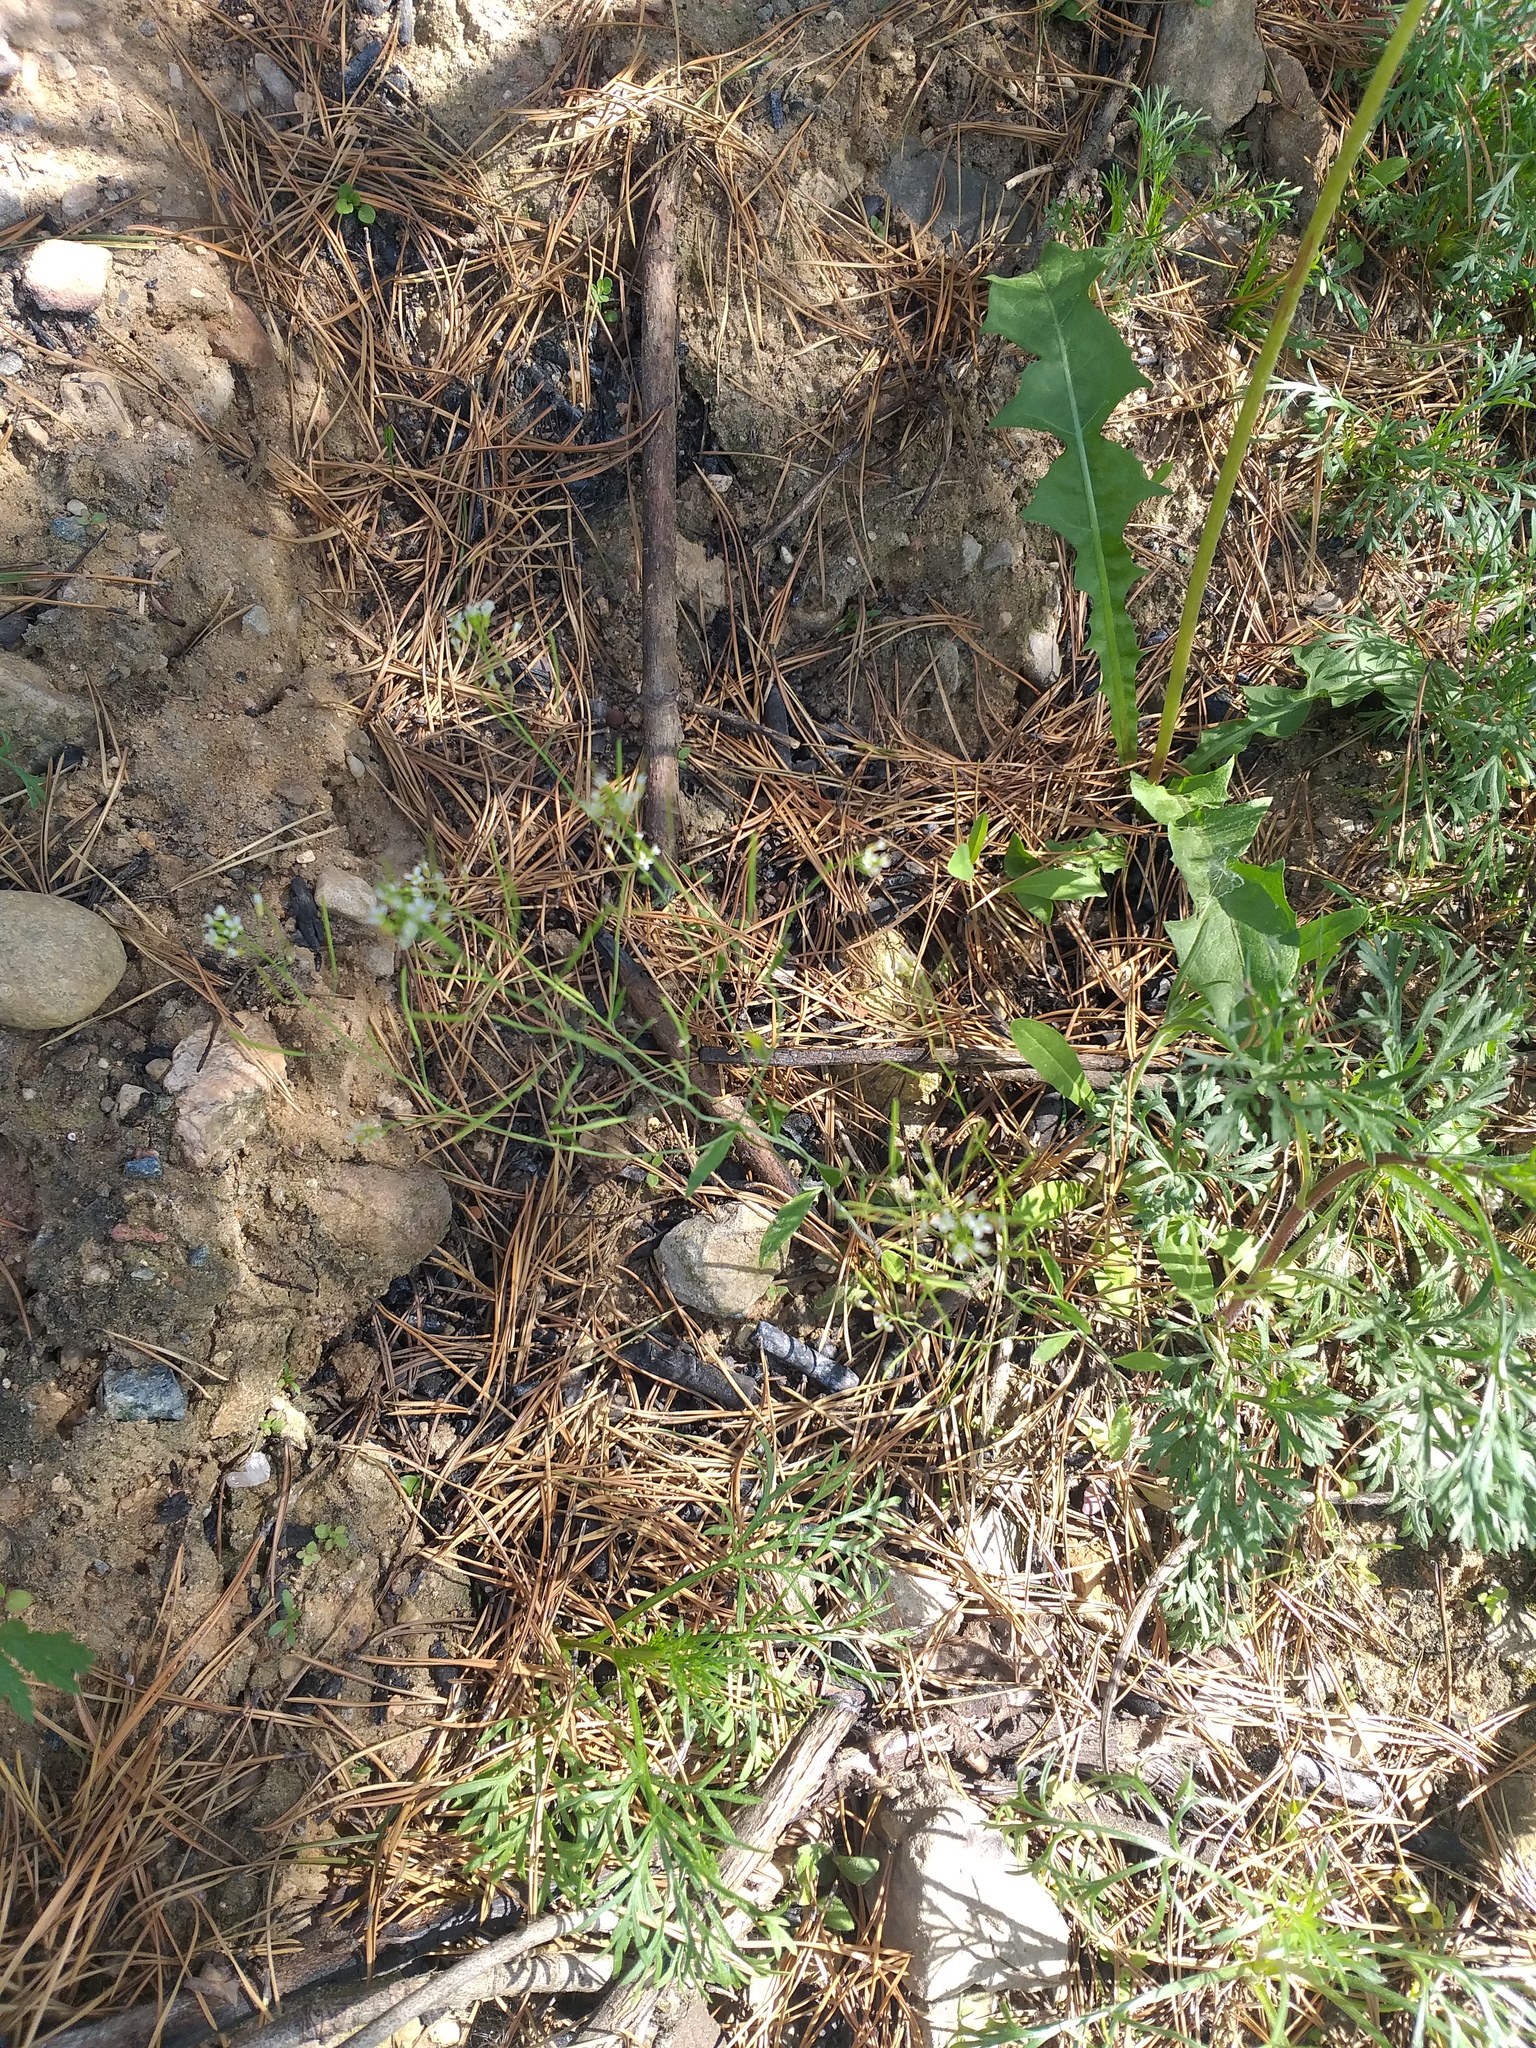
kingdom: Plantae
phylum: Tracheophyta
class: Magnoliopsida
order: Brassicales
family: Brassicaceae
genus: Arabidopsis
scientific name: Arabidopsis thaliana
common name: Thale cress
